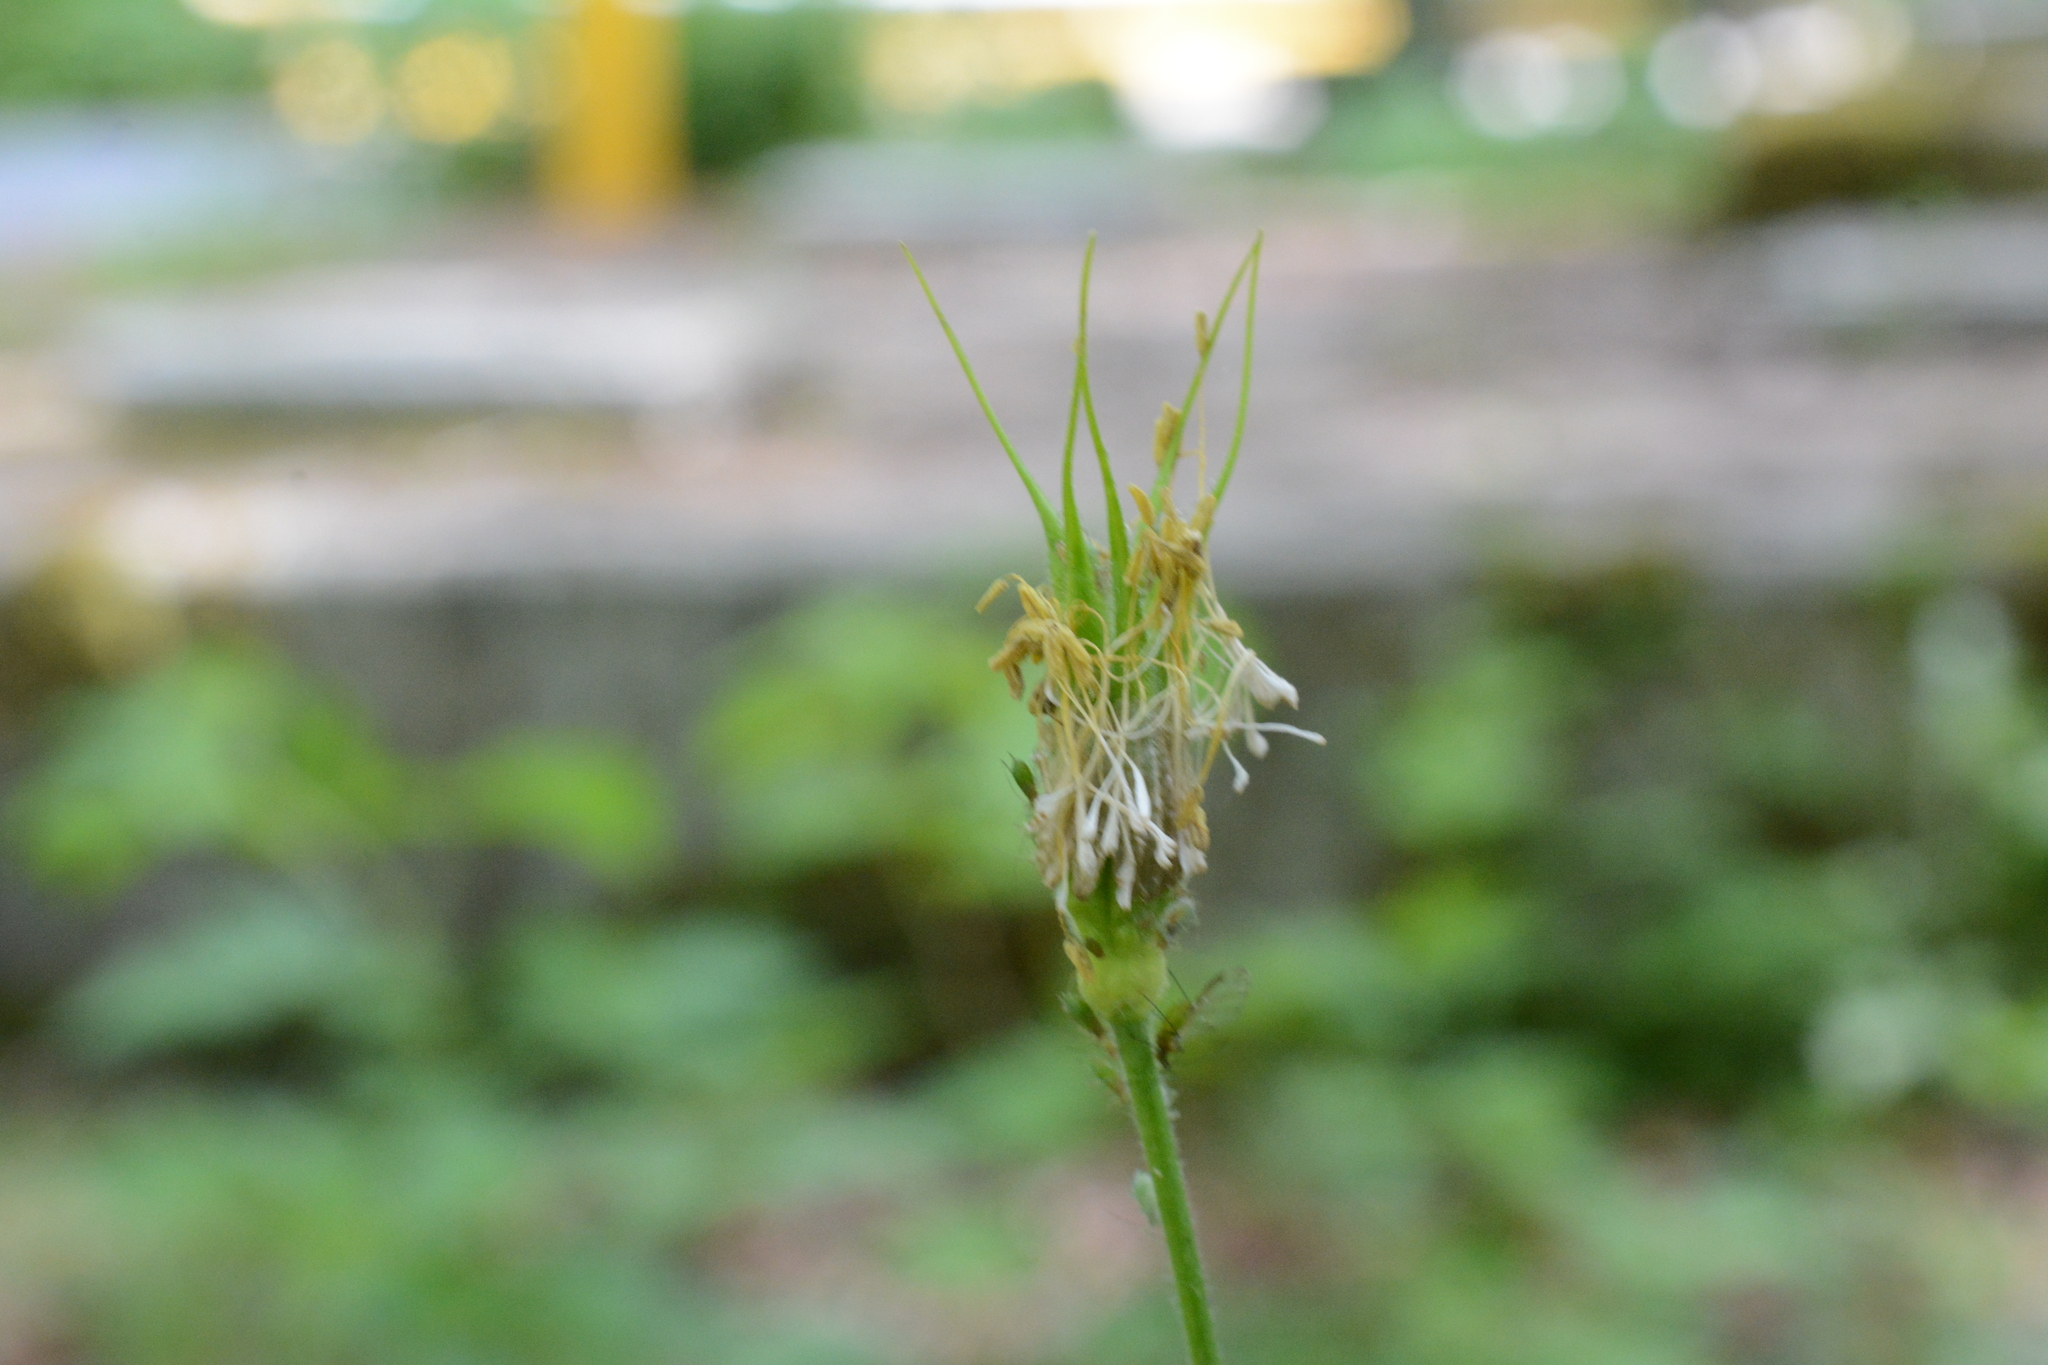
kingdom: Plantae
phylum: Tracheophyta
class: Magnoliopsida
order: Ranunculales
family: Ranunculaceae
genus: Aquilegia
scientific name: Aquilegia formosa
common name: Sitka columbine
